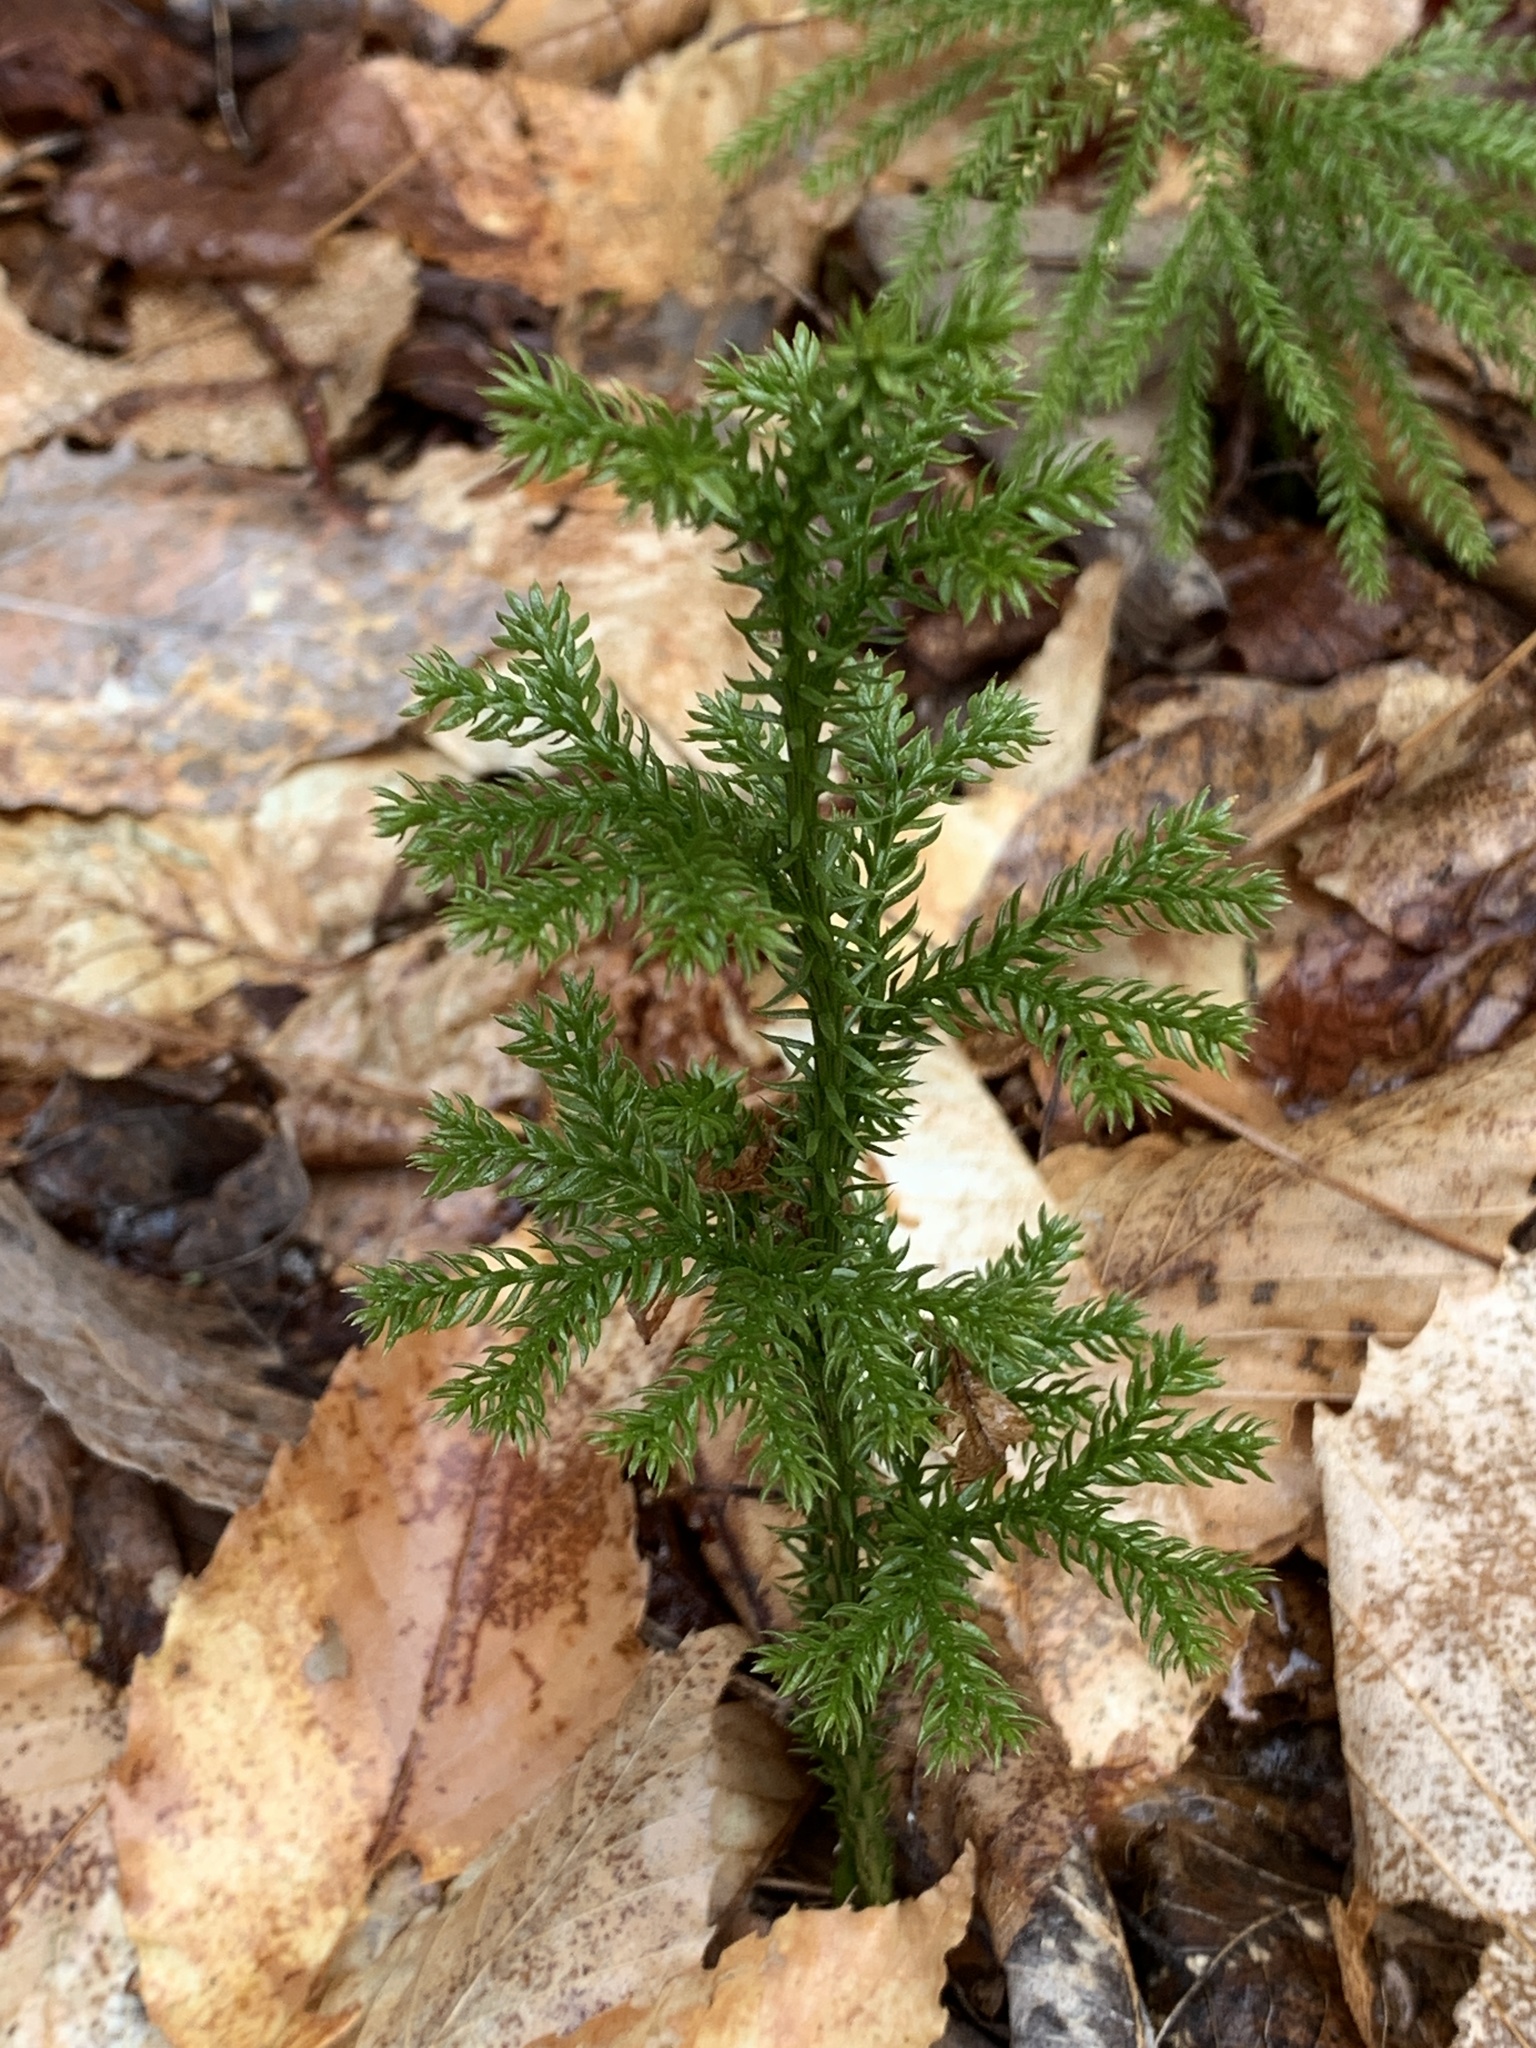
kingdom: Plantae
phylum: Tracheophyta
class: Lycopodiopsida
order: Lycopodiales
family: Lycopodiaceae
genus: Dendrolycopodium
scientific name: Dendrolycopodium dendroideum
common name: Northern tree-clubmoss
